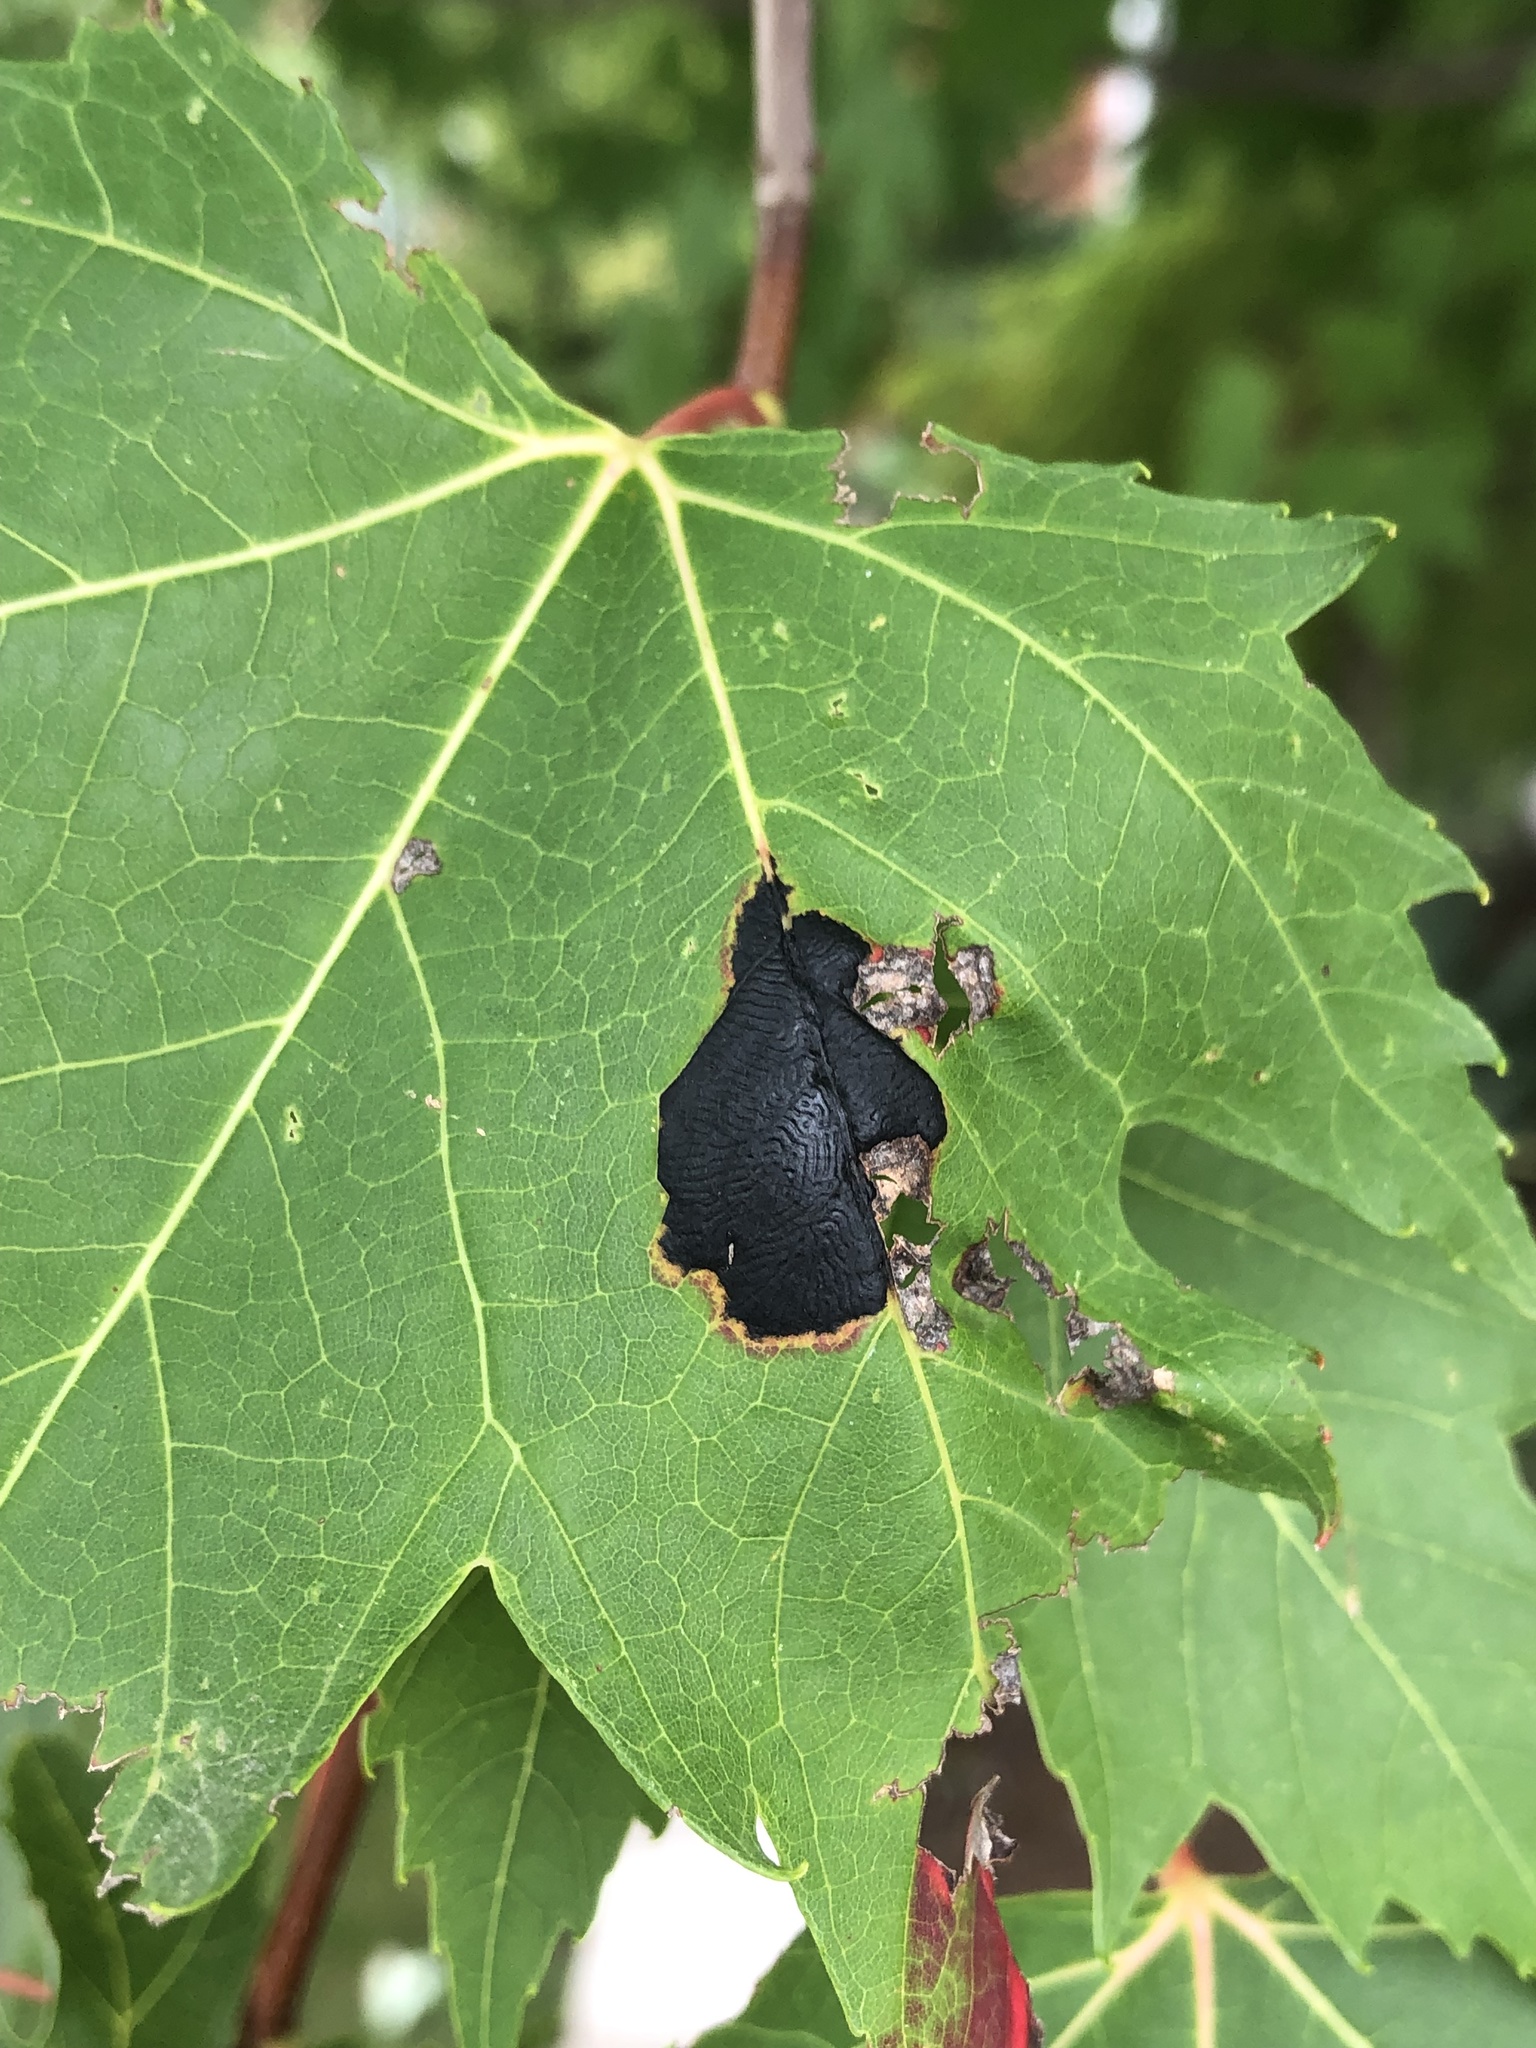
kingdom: Fungi
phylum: Ascomycota
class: Leotiomycetes
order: Rhytismatales
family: Rhytismataceae
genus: Rhytisma
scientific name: Rhytisma americanum
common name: American tar spot
